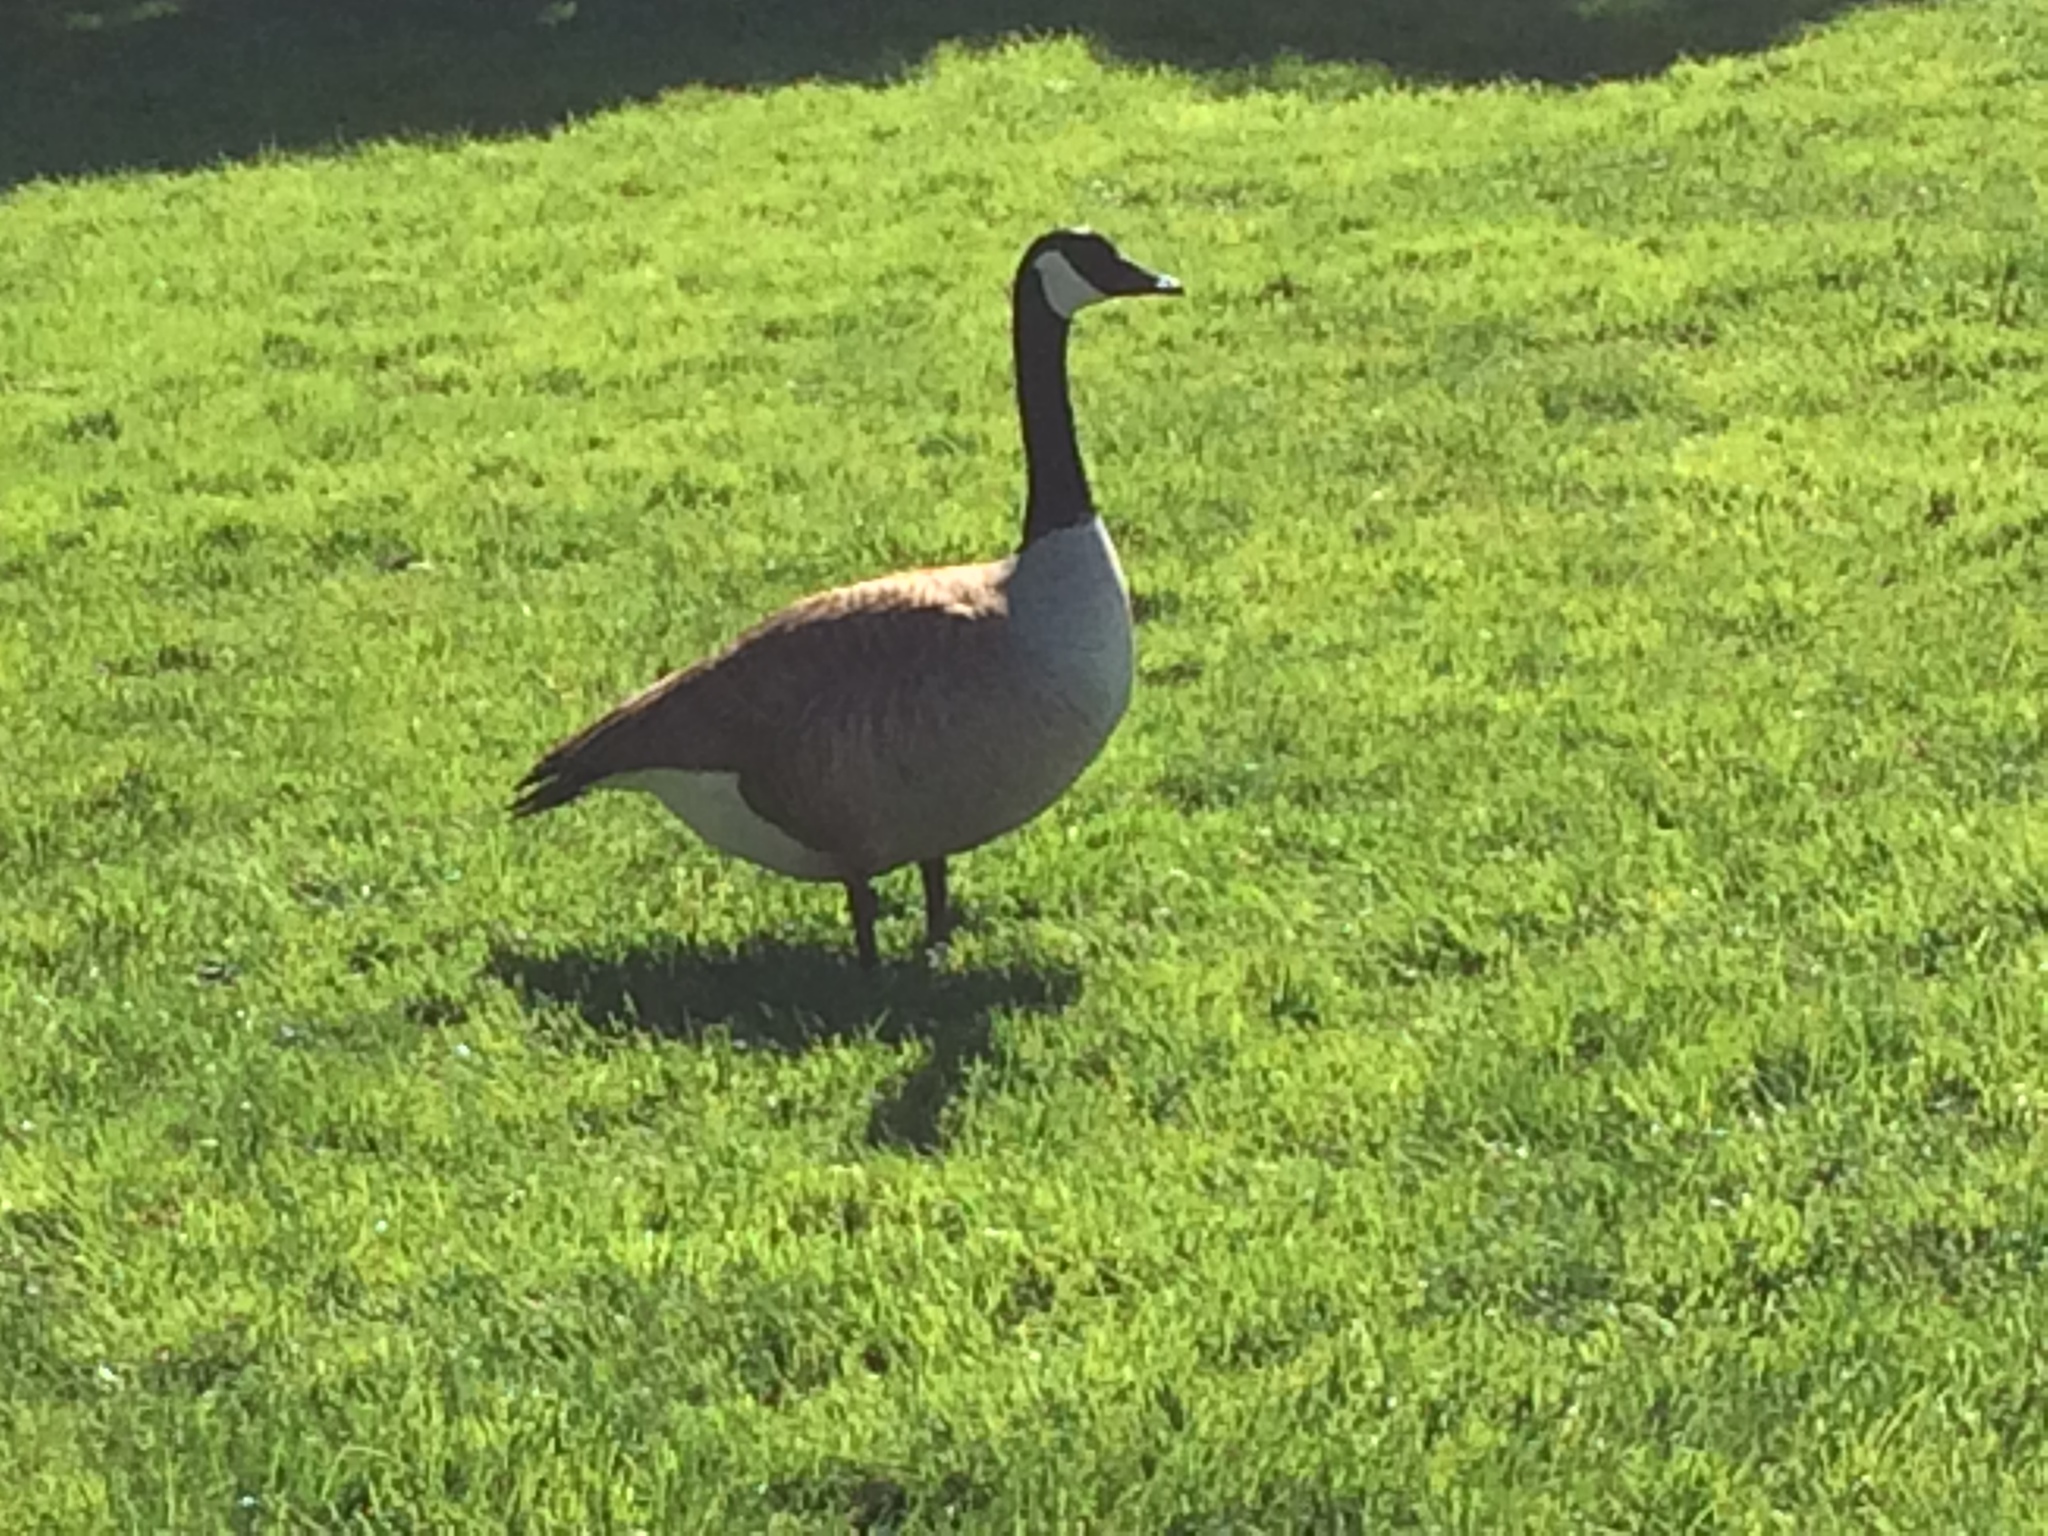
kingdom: Animalia
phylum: Chordata
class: Aves
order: Anseriformes
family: Anatidae
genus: Branta
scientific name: Branta canadensis
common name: Canada goose
